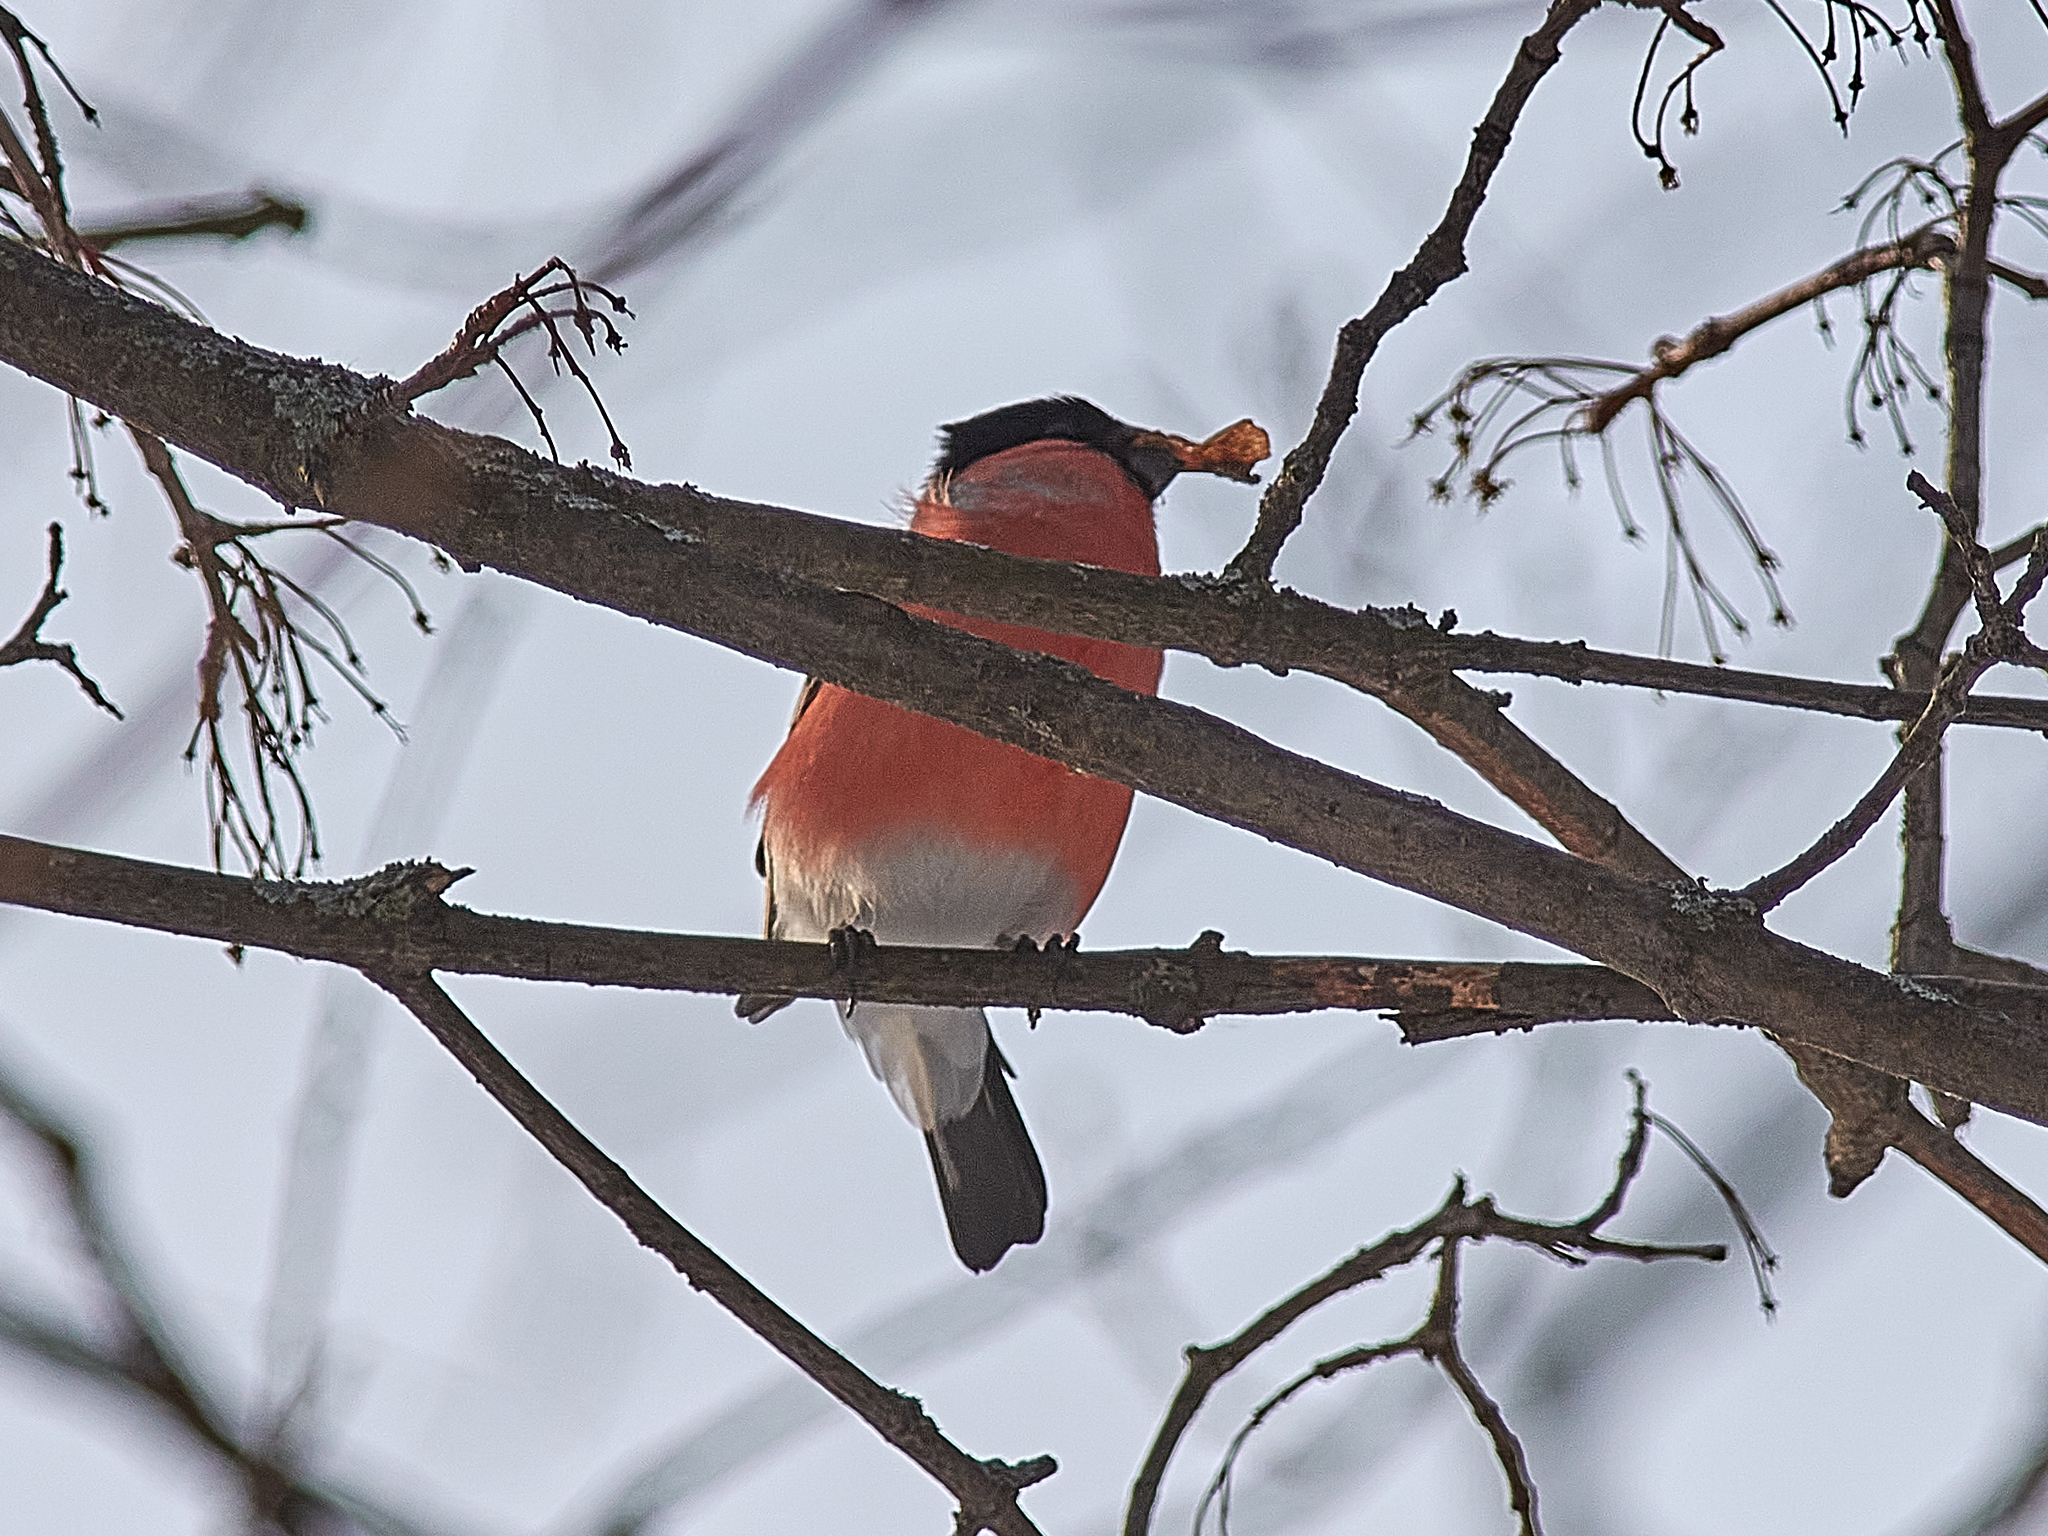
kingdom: Animalia
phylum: Chordata
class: Aves
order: Passeriformes
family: Fringillidae
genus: Pyrrhula
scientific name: Pyrrhula pyrrhula
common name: Eurasian bullfinch
